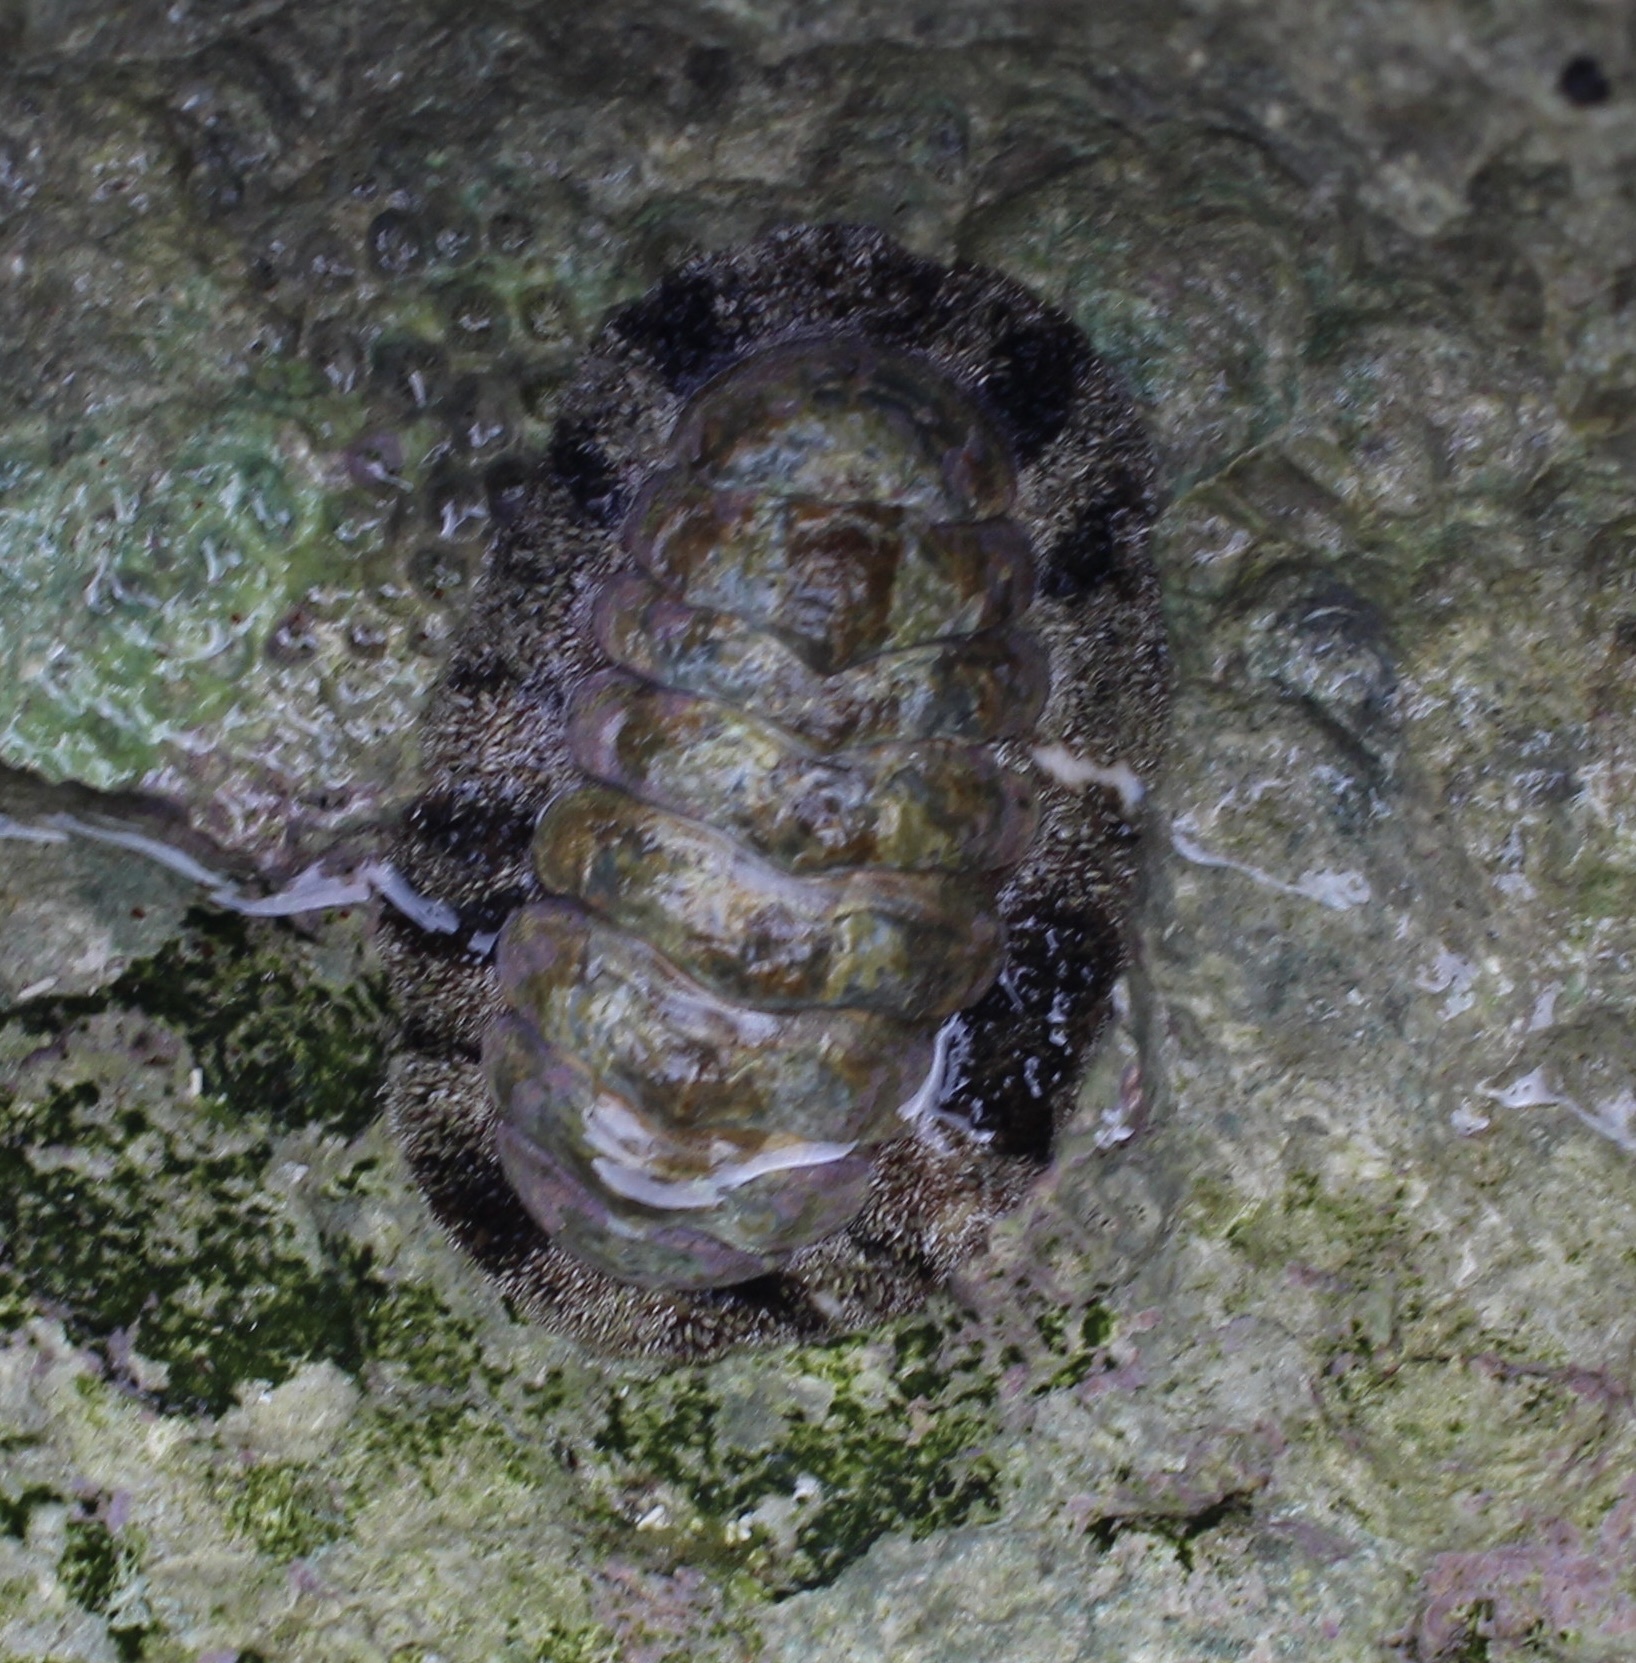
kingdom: Animalia
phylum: Mollusca
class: Polyplacophora
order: Chitonida
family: Chitonidae
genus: Acanthopleura
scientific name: Acanthopleura granulata
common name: West indian fuzzy chiton
